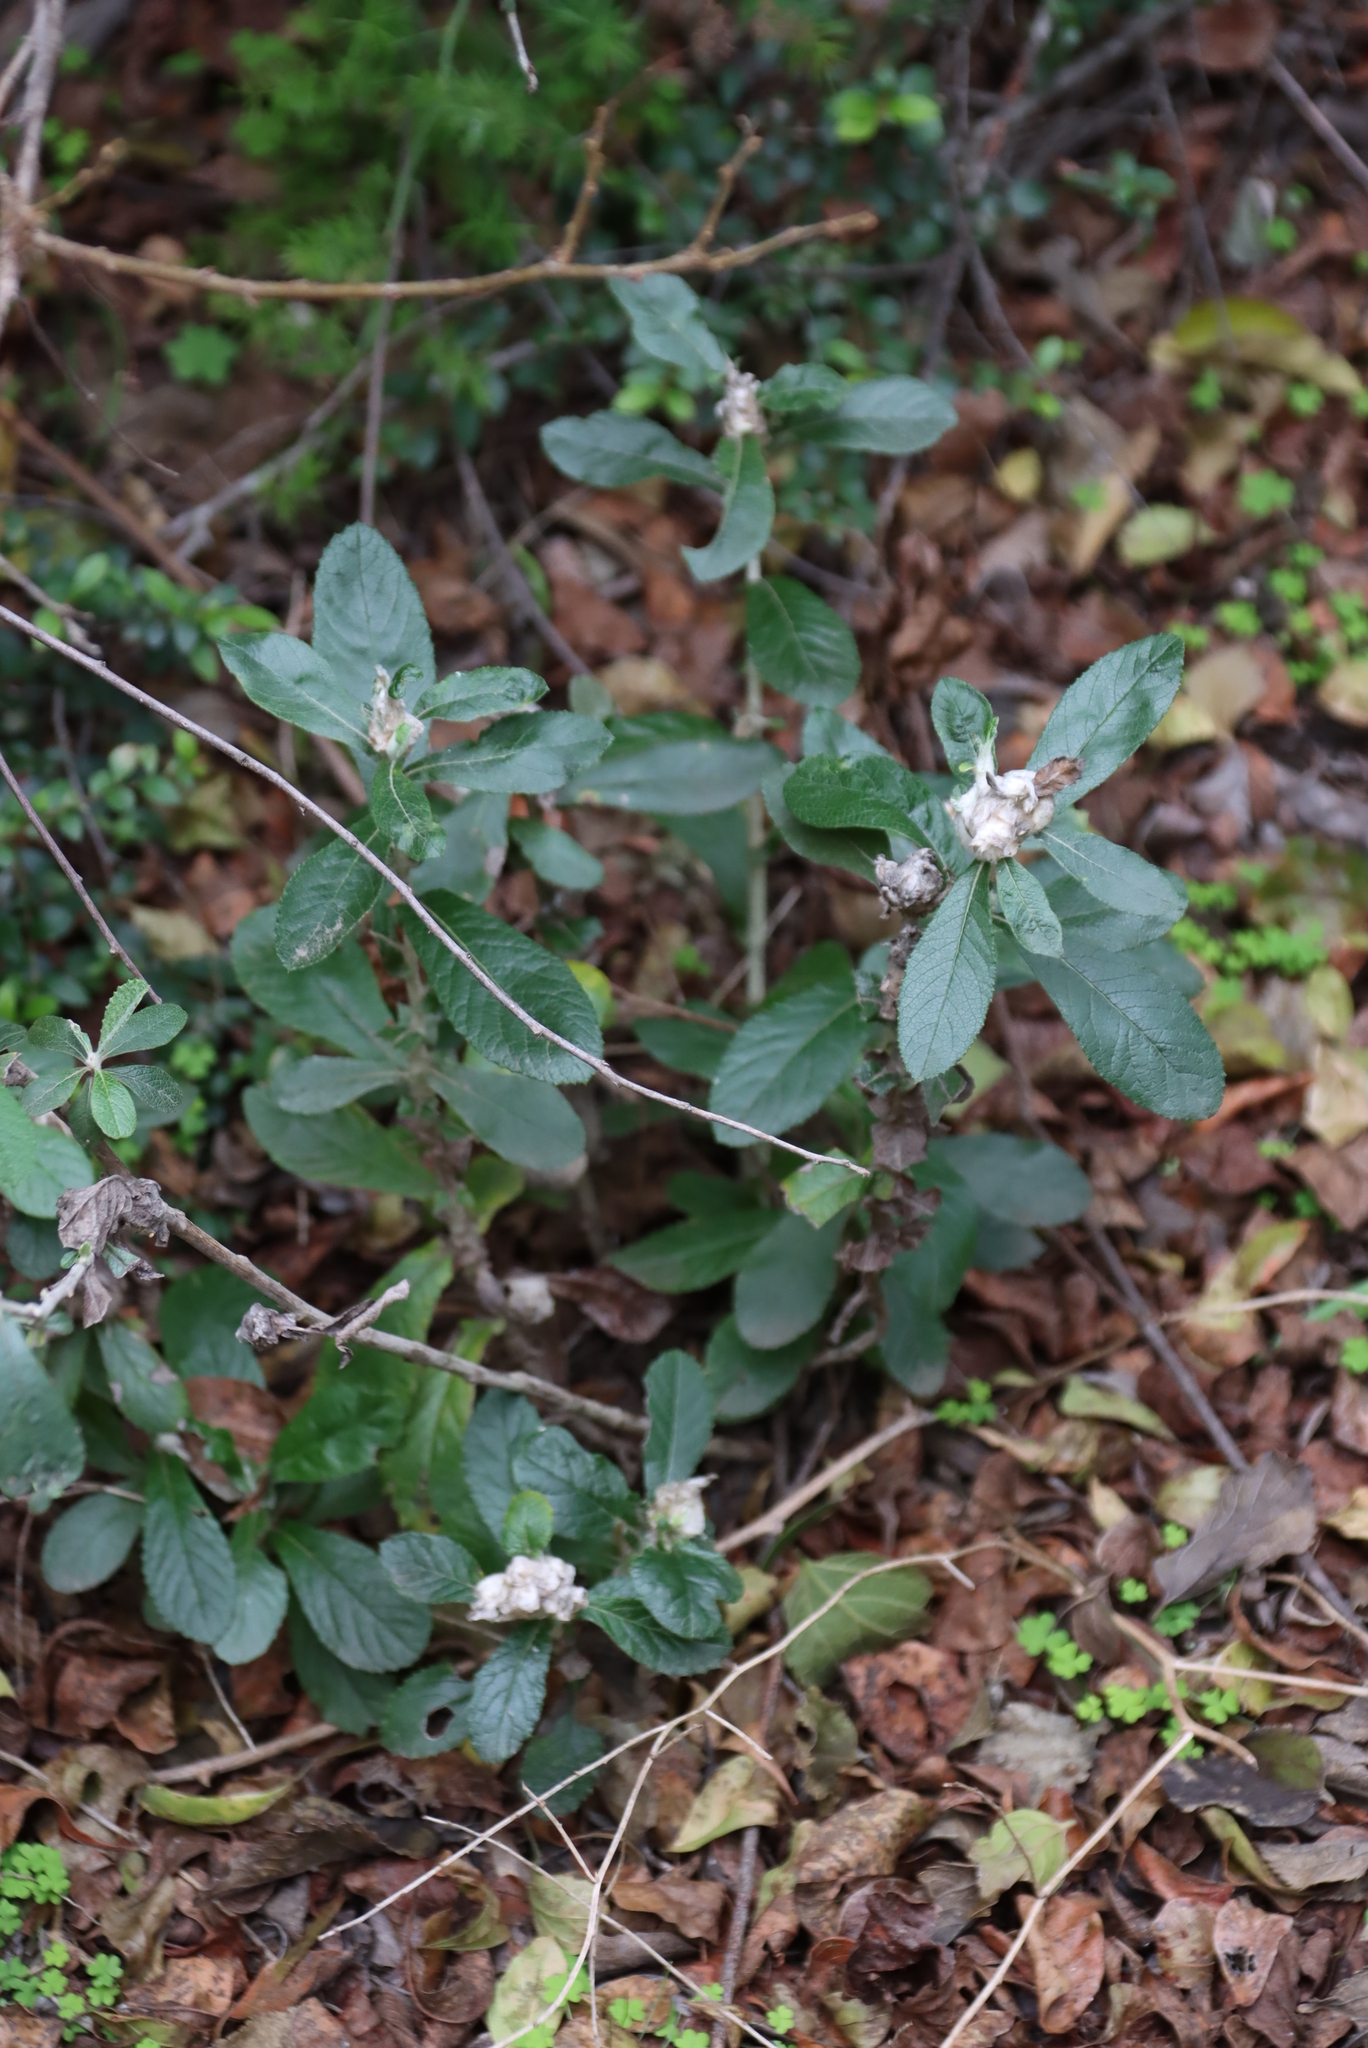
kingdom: Plantae
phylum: Tracheophyta
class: Magnoliopsida
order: Asterales
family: Asteraceae
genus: Tarchonanthus
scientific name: Tarchonanthus littoralis
